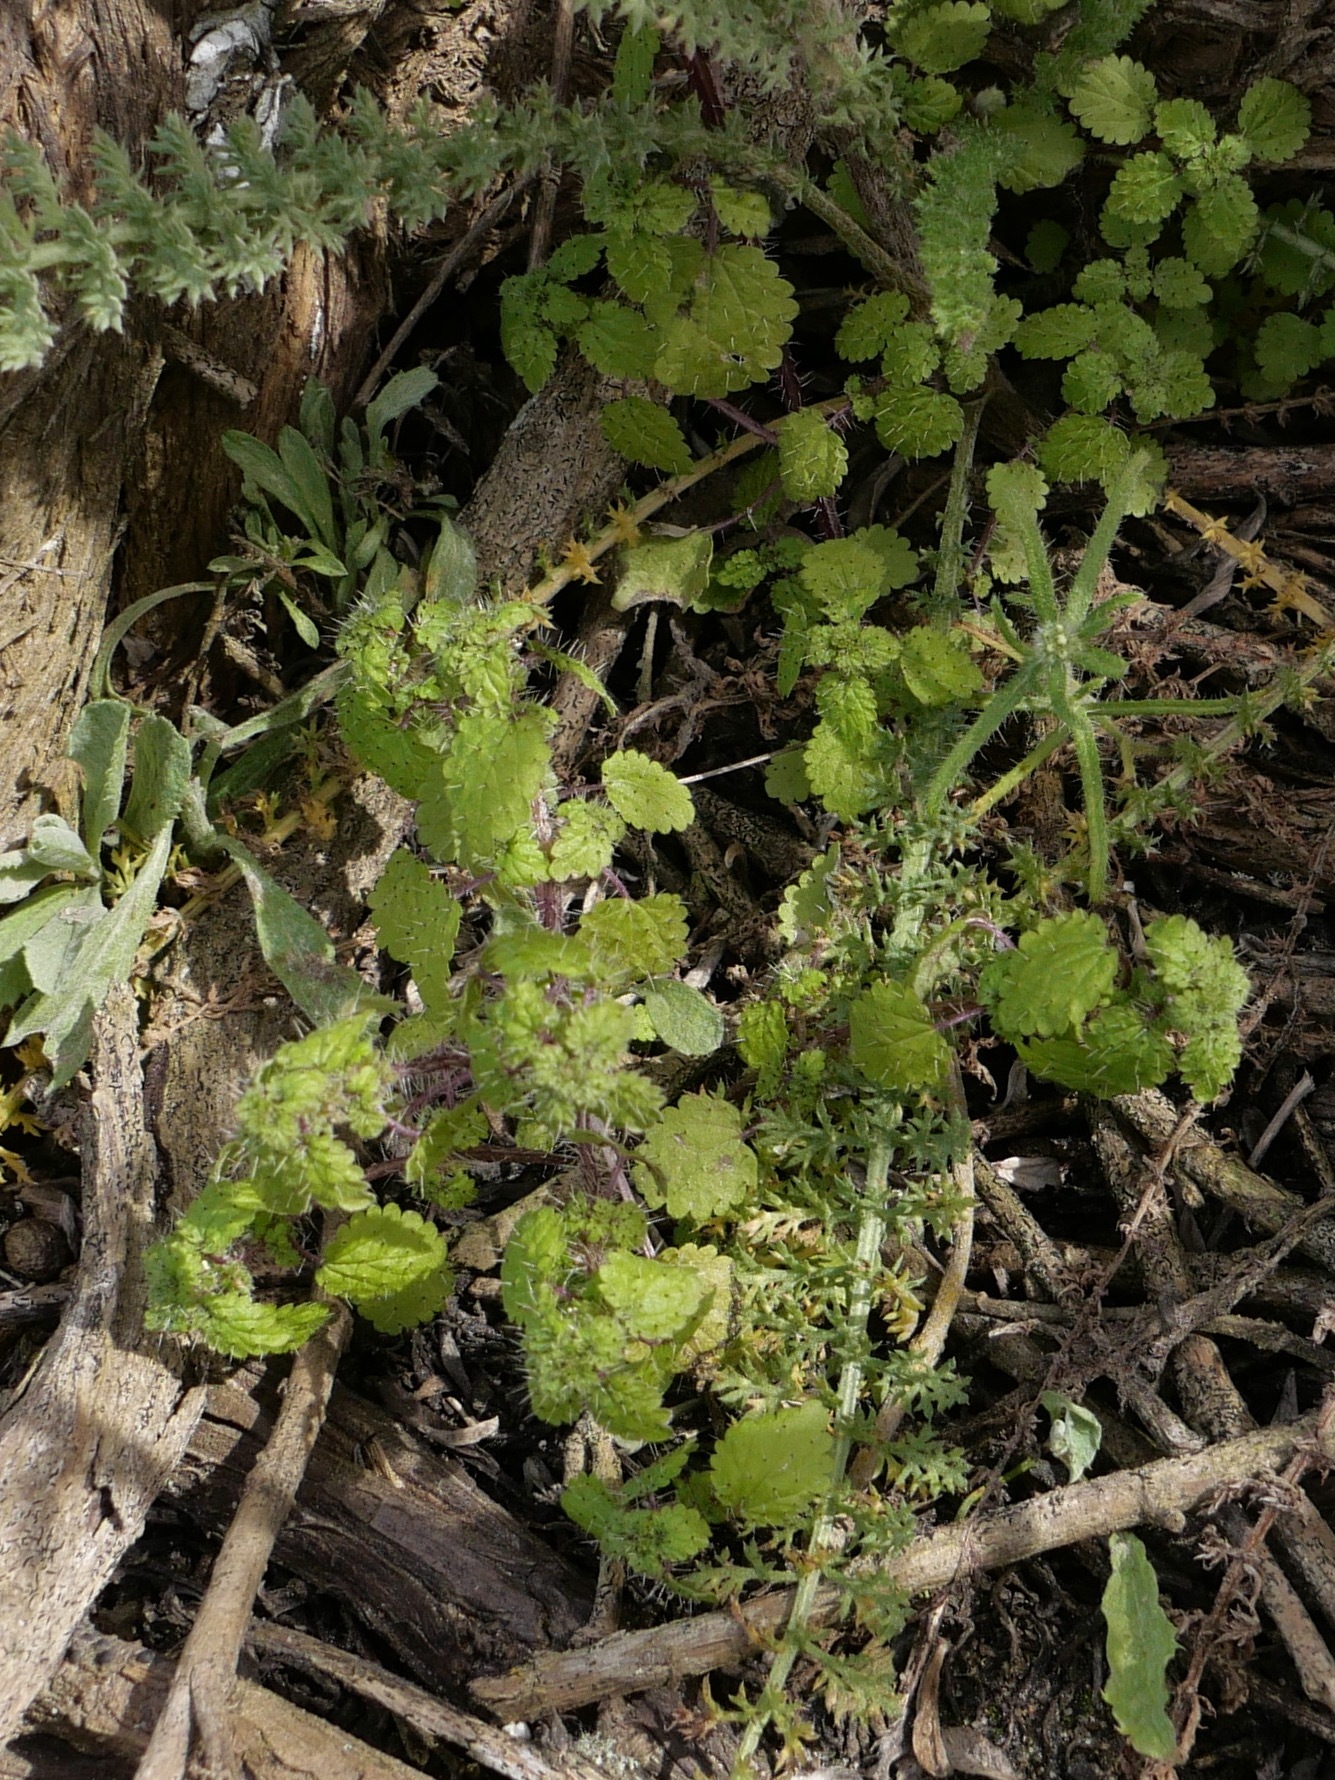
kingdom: Plantae
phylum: Tracheophyta
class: Magnoliopsida
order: Rosales
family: Urticaceae
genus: Hesperocnide
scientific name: Hesperocnide tenella
